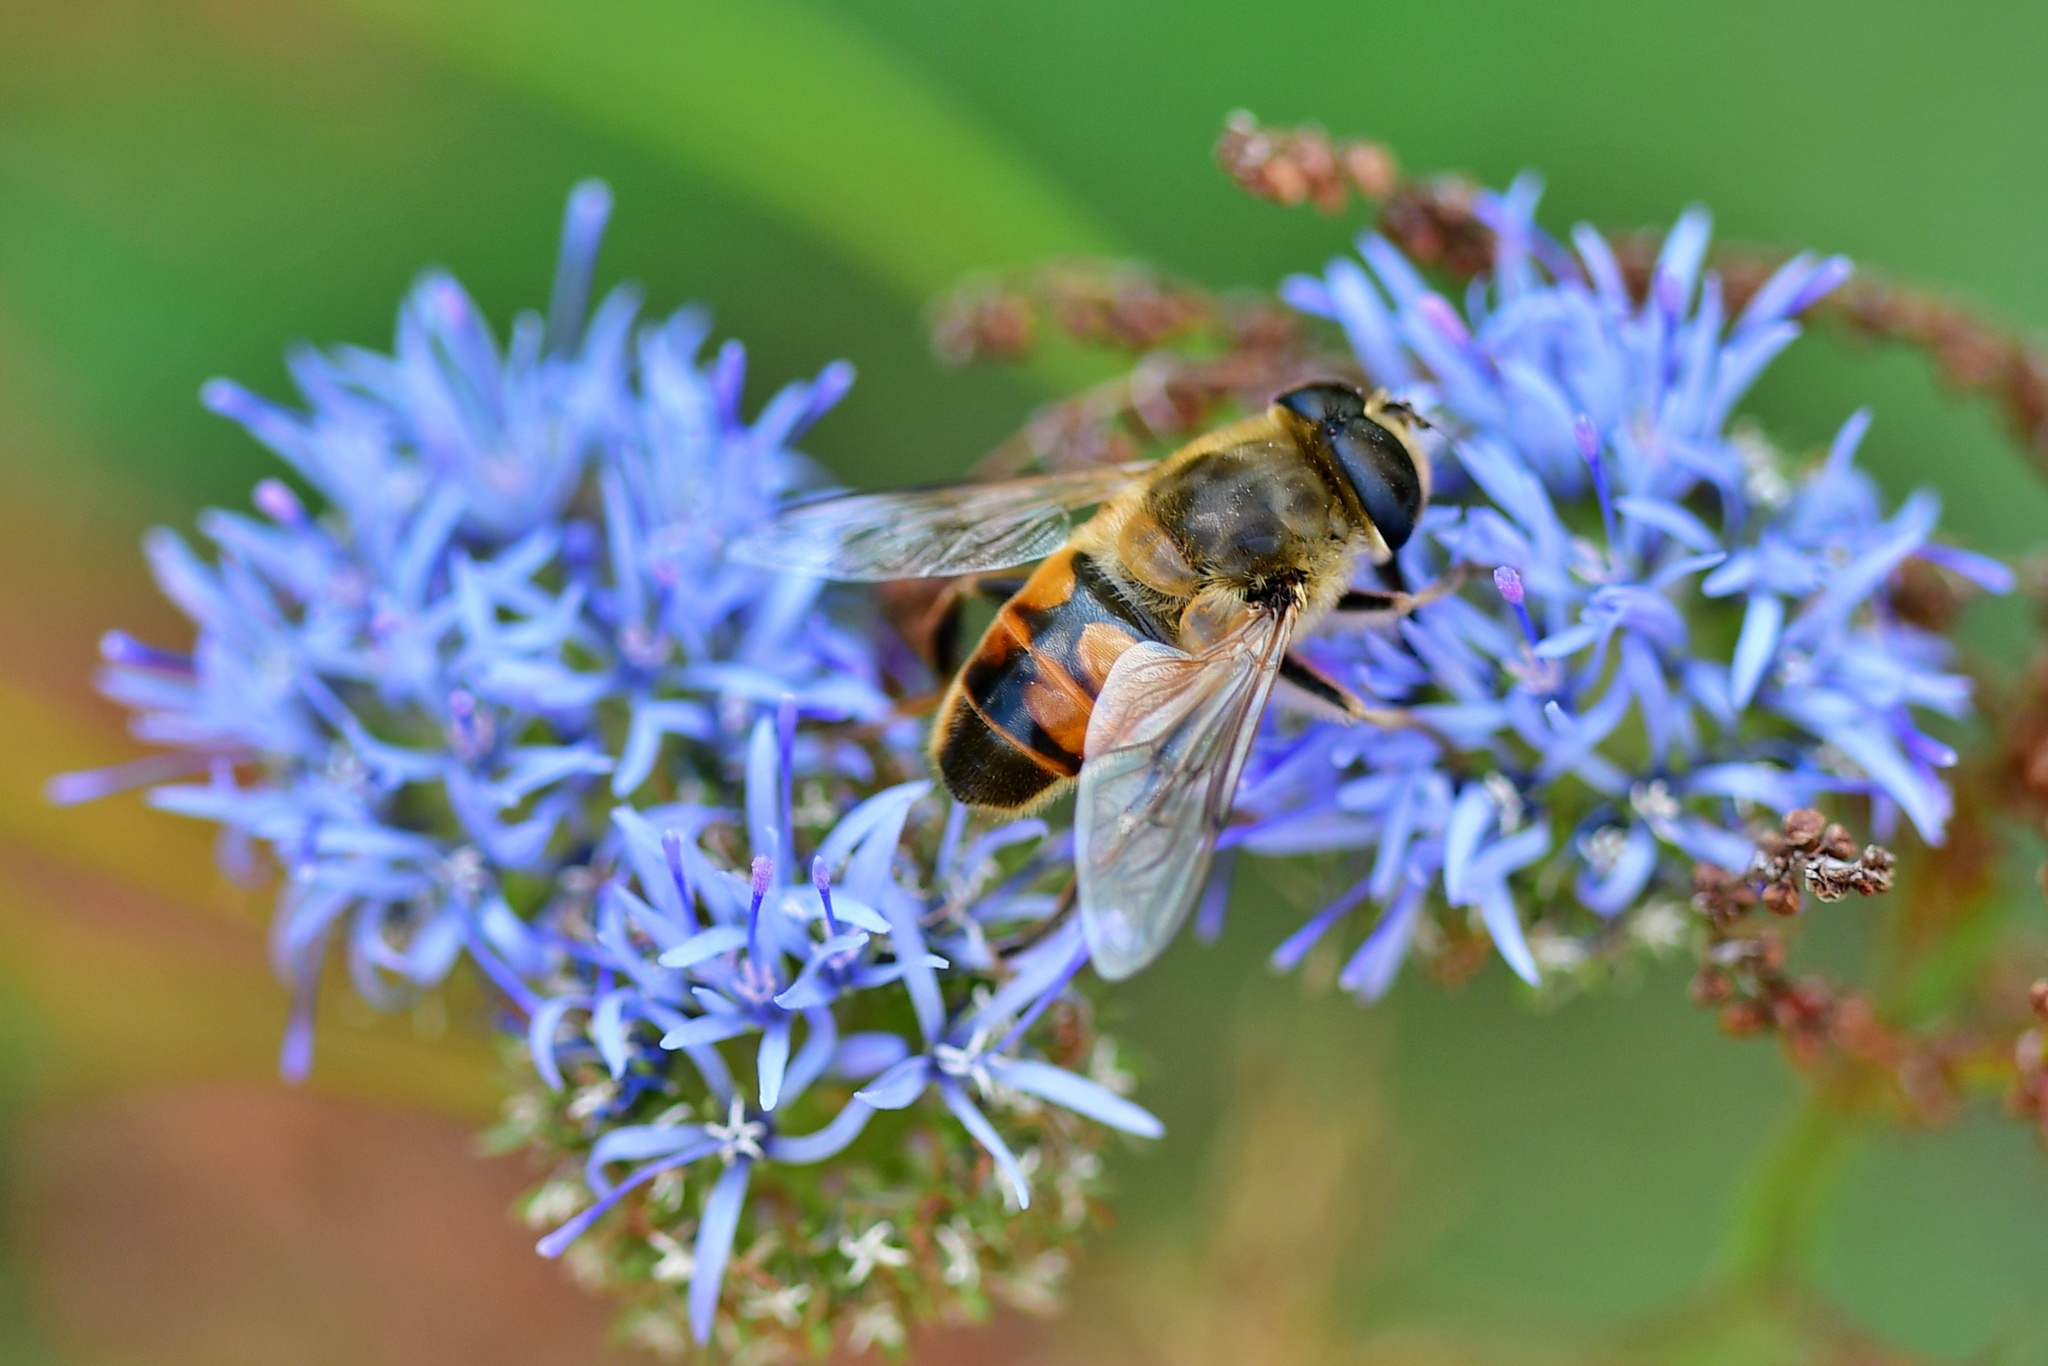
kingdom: Animalia
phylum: Arthropoda
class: Insecta
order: Diptera
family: Syrphidae
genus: Eristalis
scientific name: Eristalis tenax
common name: Drone fly
